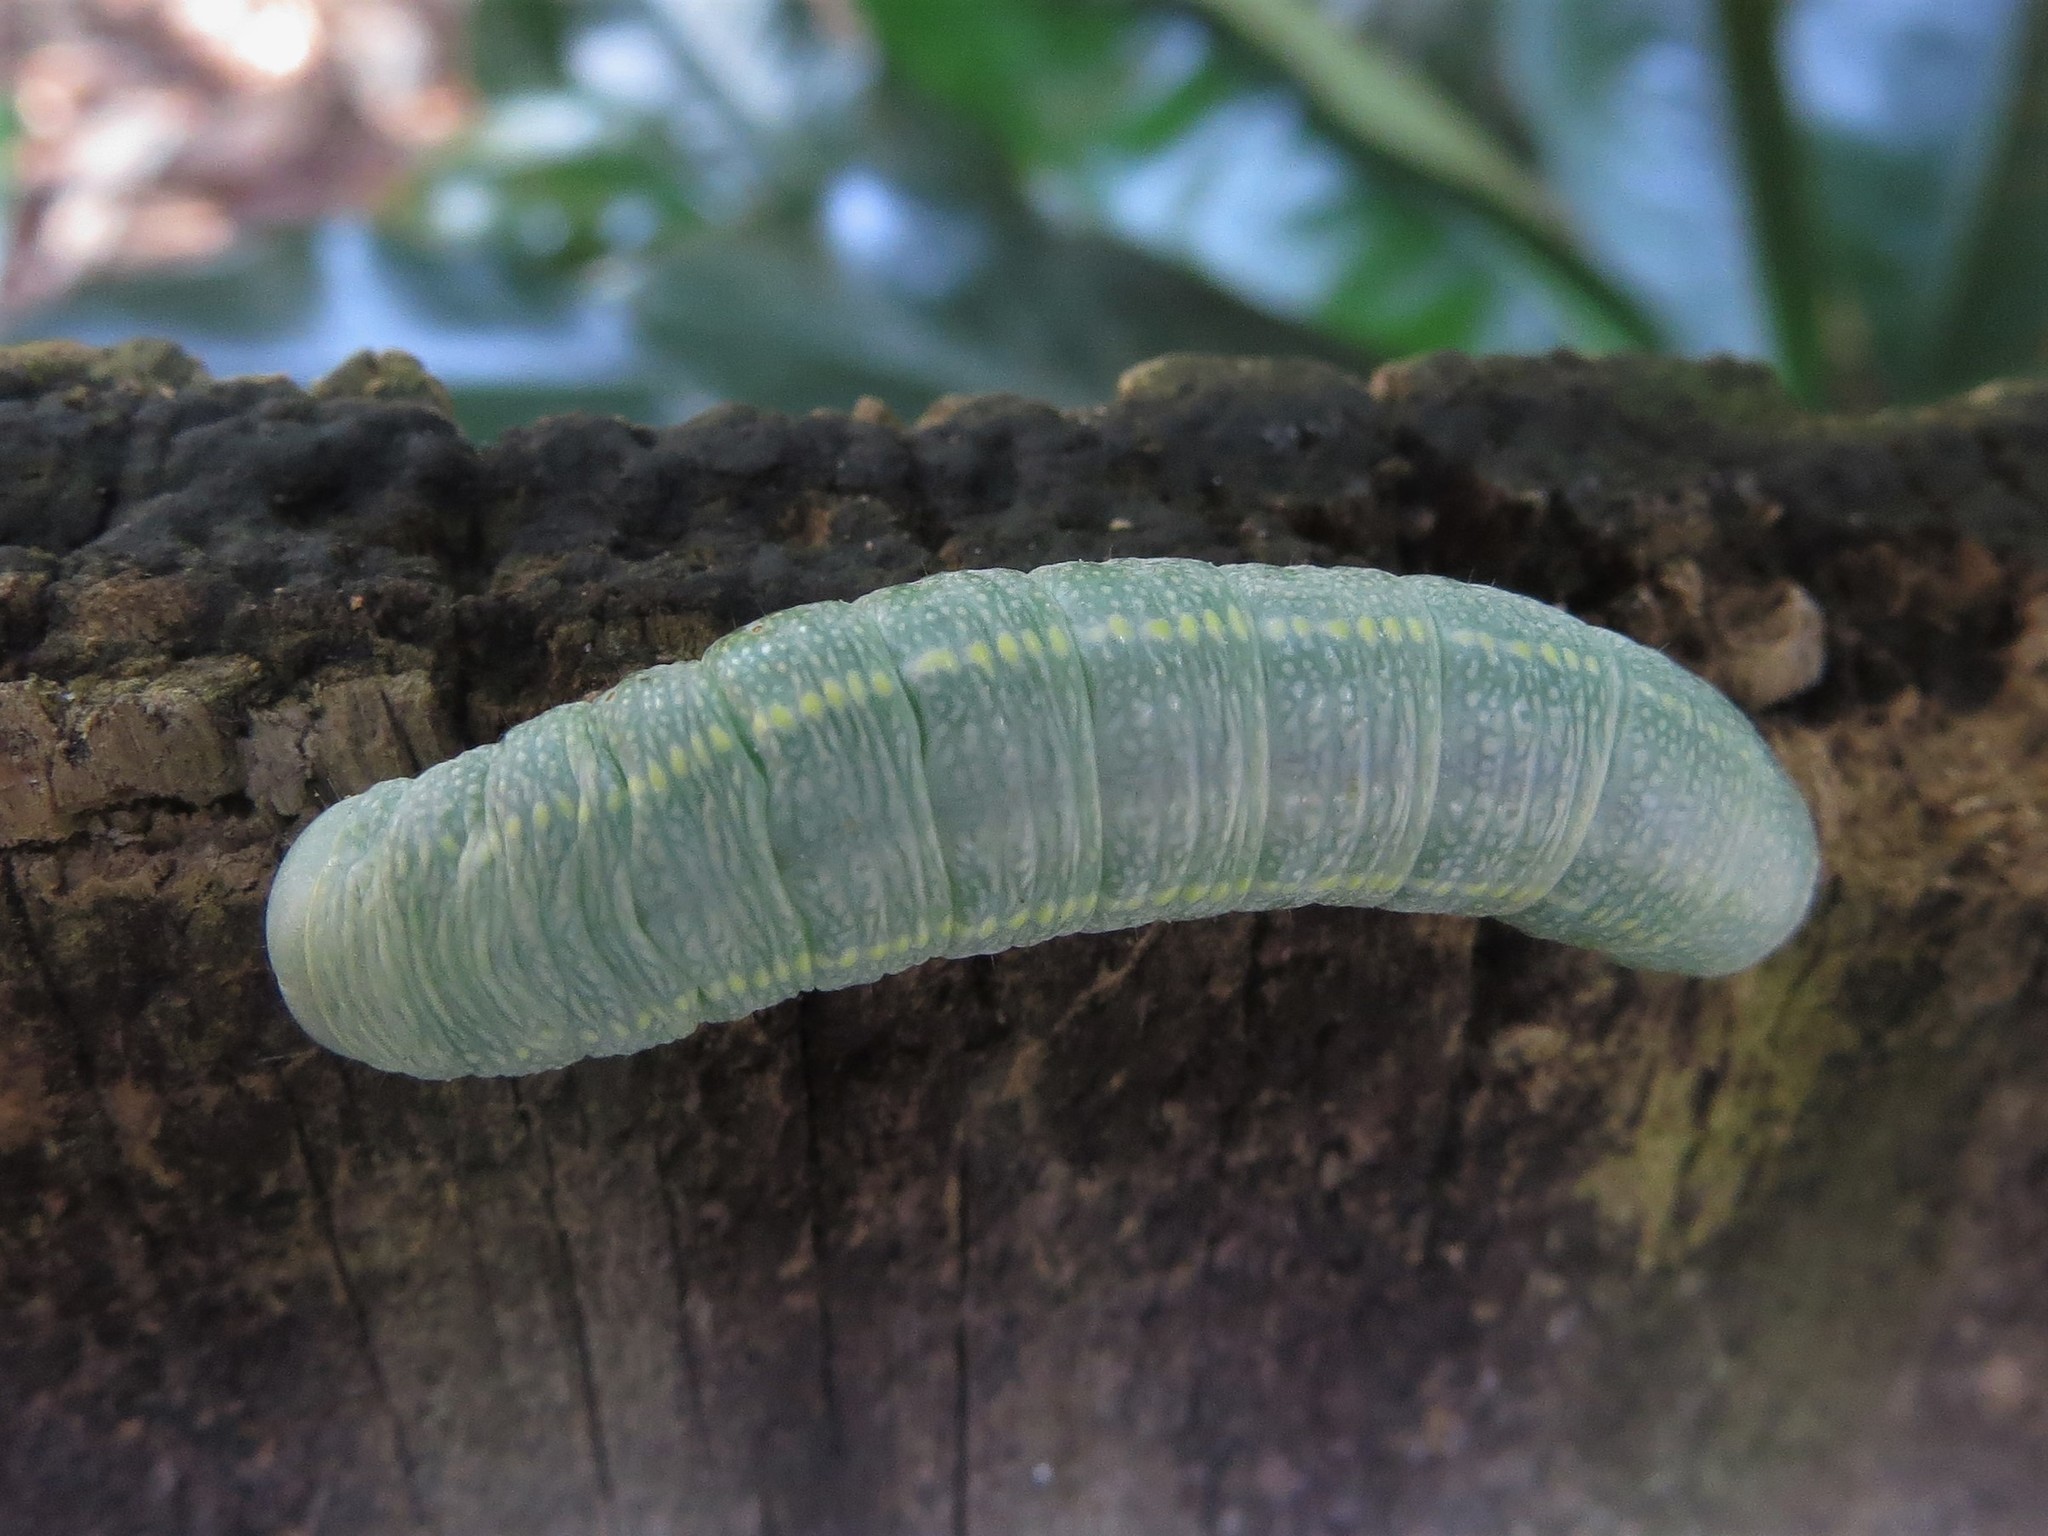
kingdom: Animalia
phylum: Arthropoda
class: Insecta
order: Lepidoptera
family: Notodontidae
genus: Nadata
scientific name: Nadata gibbosa
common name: White-dotted prominent
